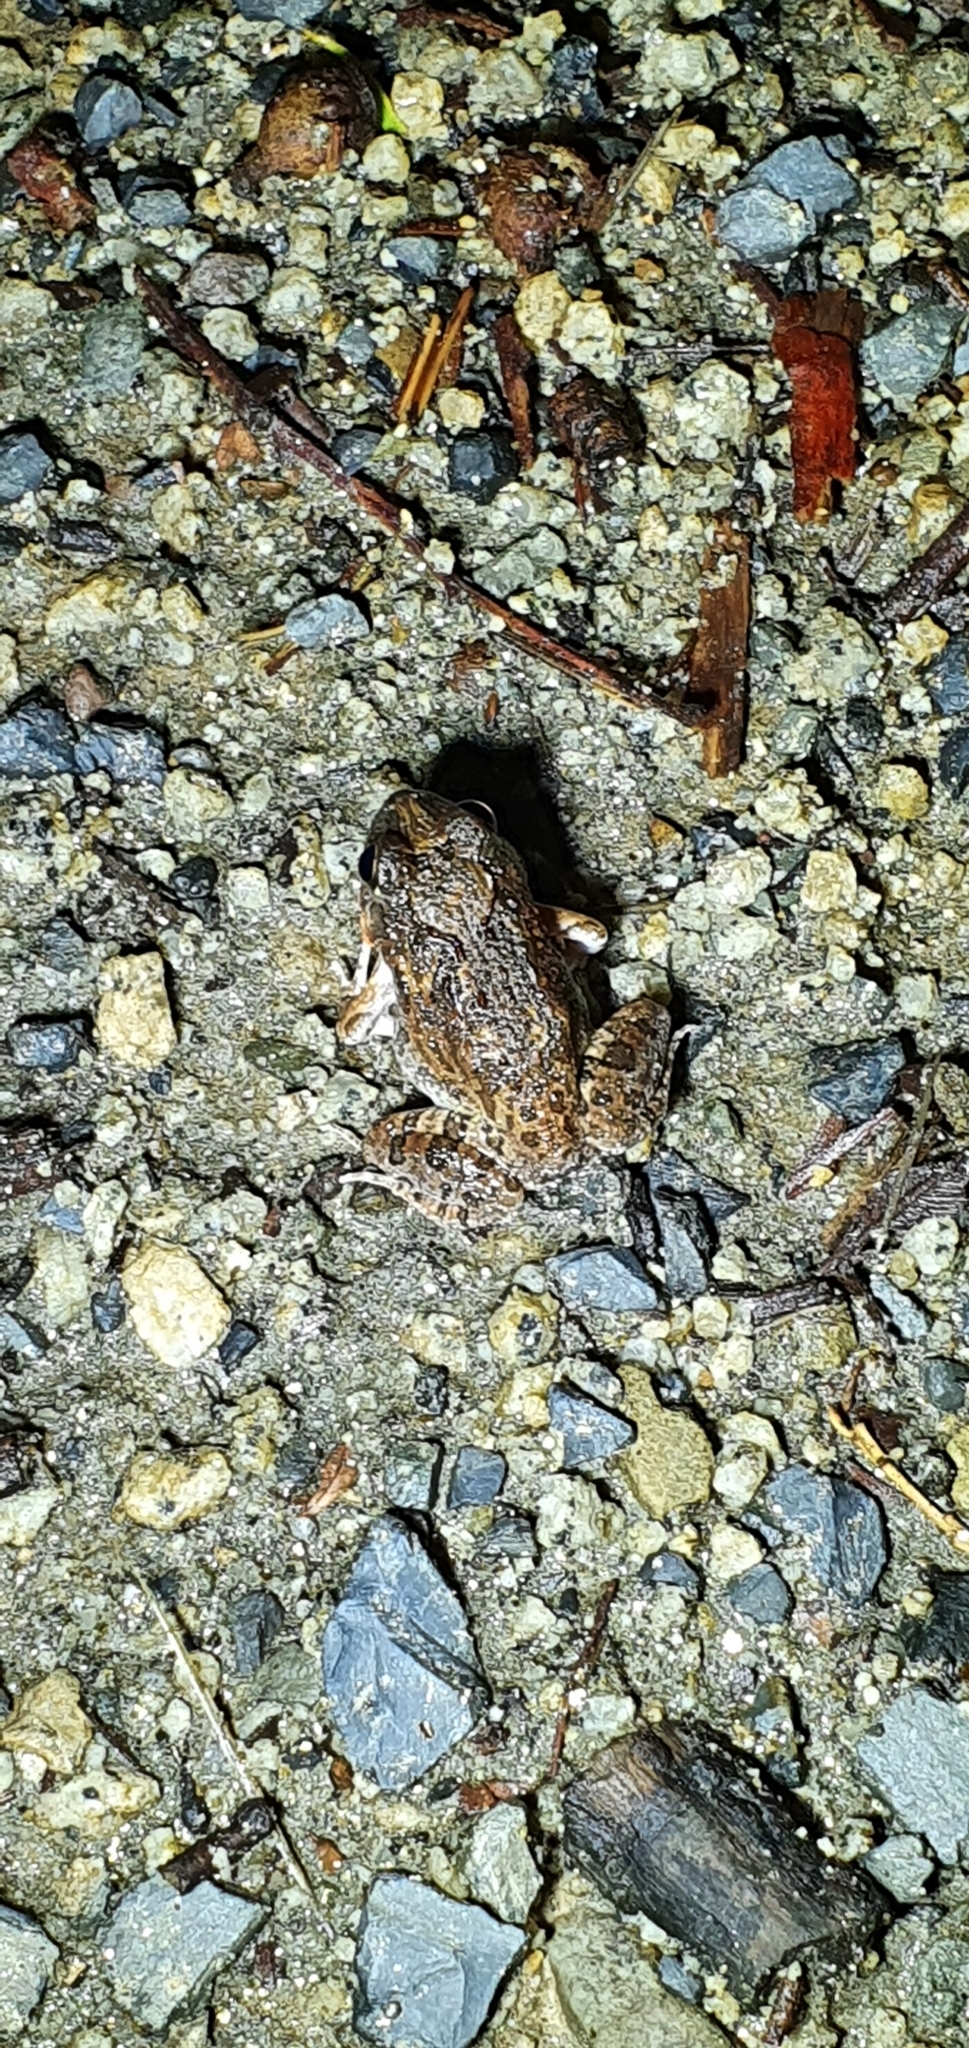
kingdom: Animalia
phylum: Chordata
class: Amphibia
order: Anura
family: Limnodynastidae
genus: Platyplectrum
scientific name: Platyplectrum ornatum
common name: Ornate burrowing frog
